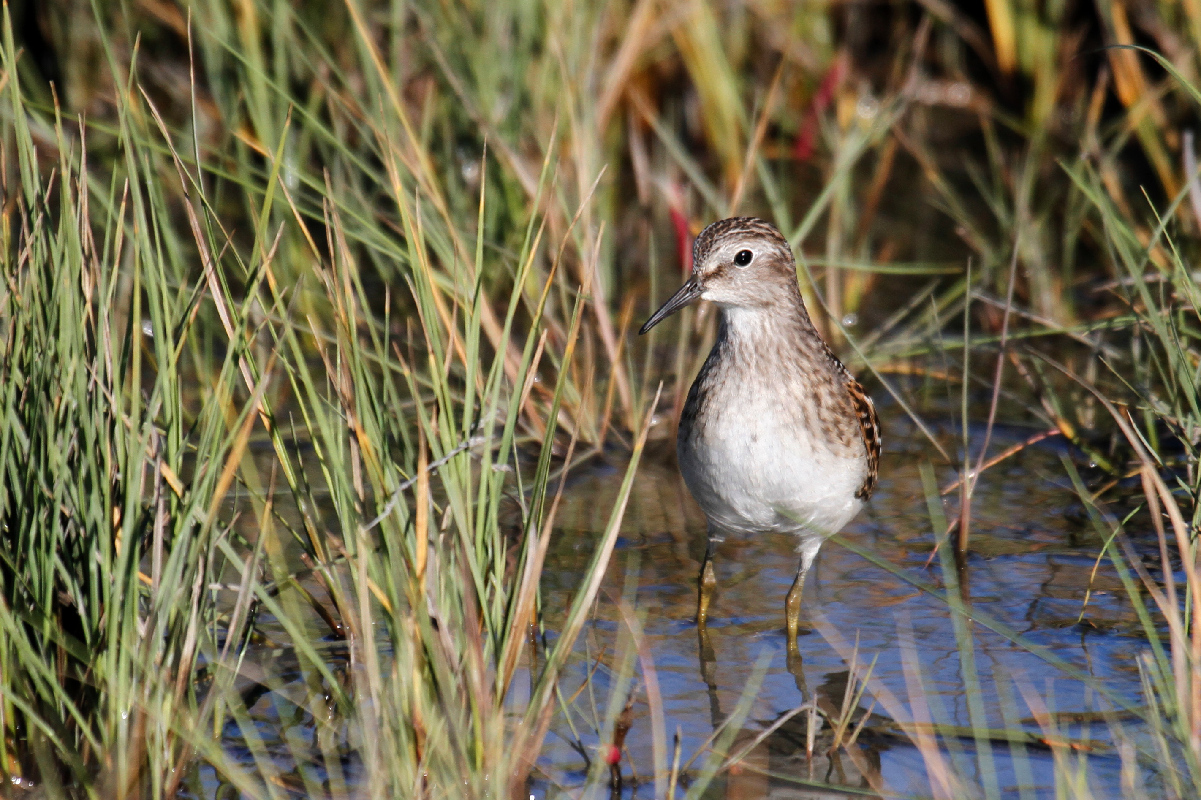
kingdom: Animalia
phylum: Chordata
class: Aves
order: Charadriiformes
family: Scolopacidae
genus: Calidris
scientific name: Calidris minutilla
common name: Least sandpiper
